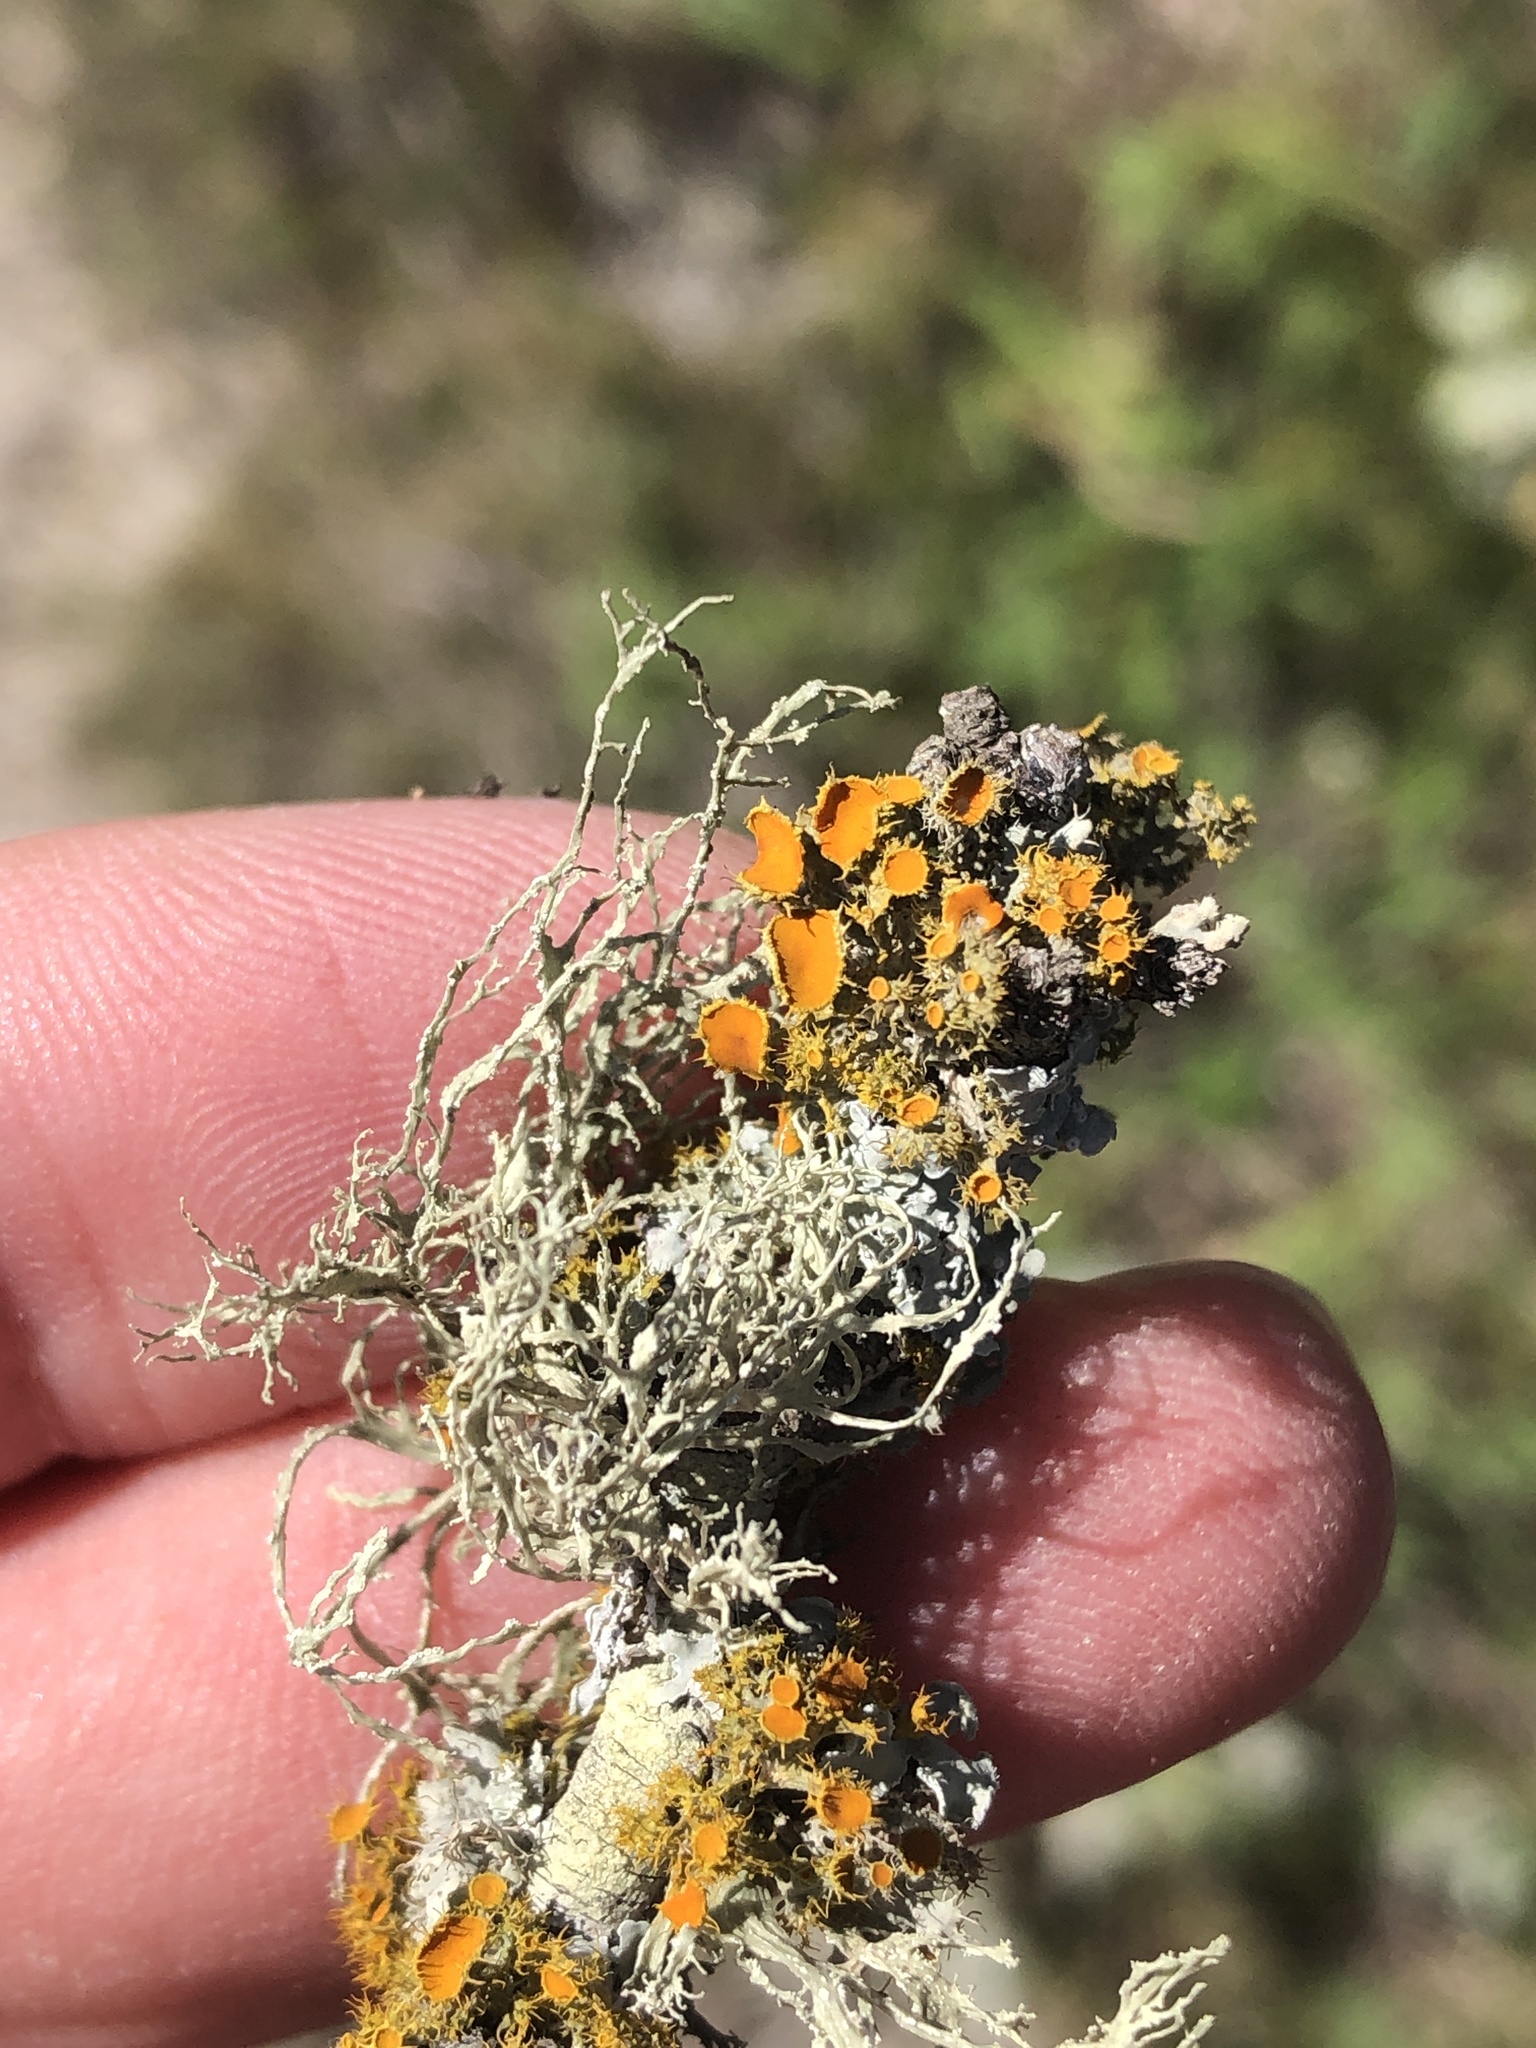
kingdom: Fungi
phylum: Ascomycota
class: Lecanoromycetes
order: Teloschistales
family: Teloschistaceae
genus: Niorma
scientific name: Niorma chrysophthalma
